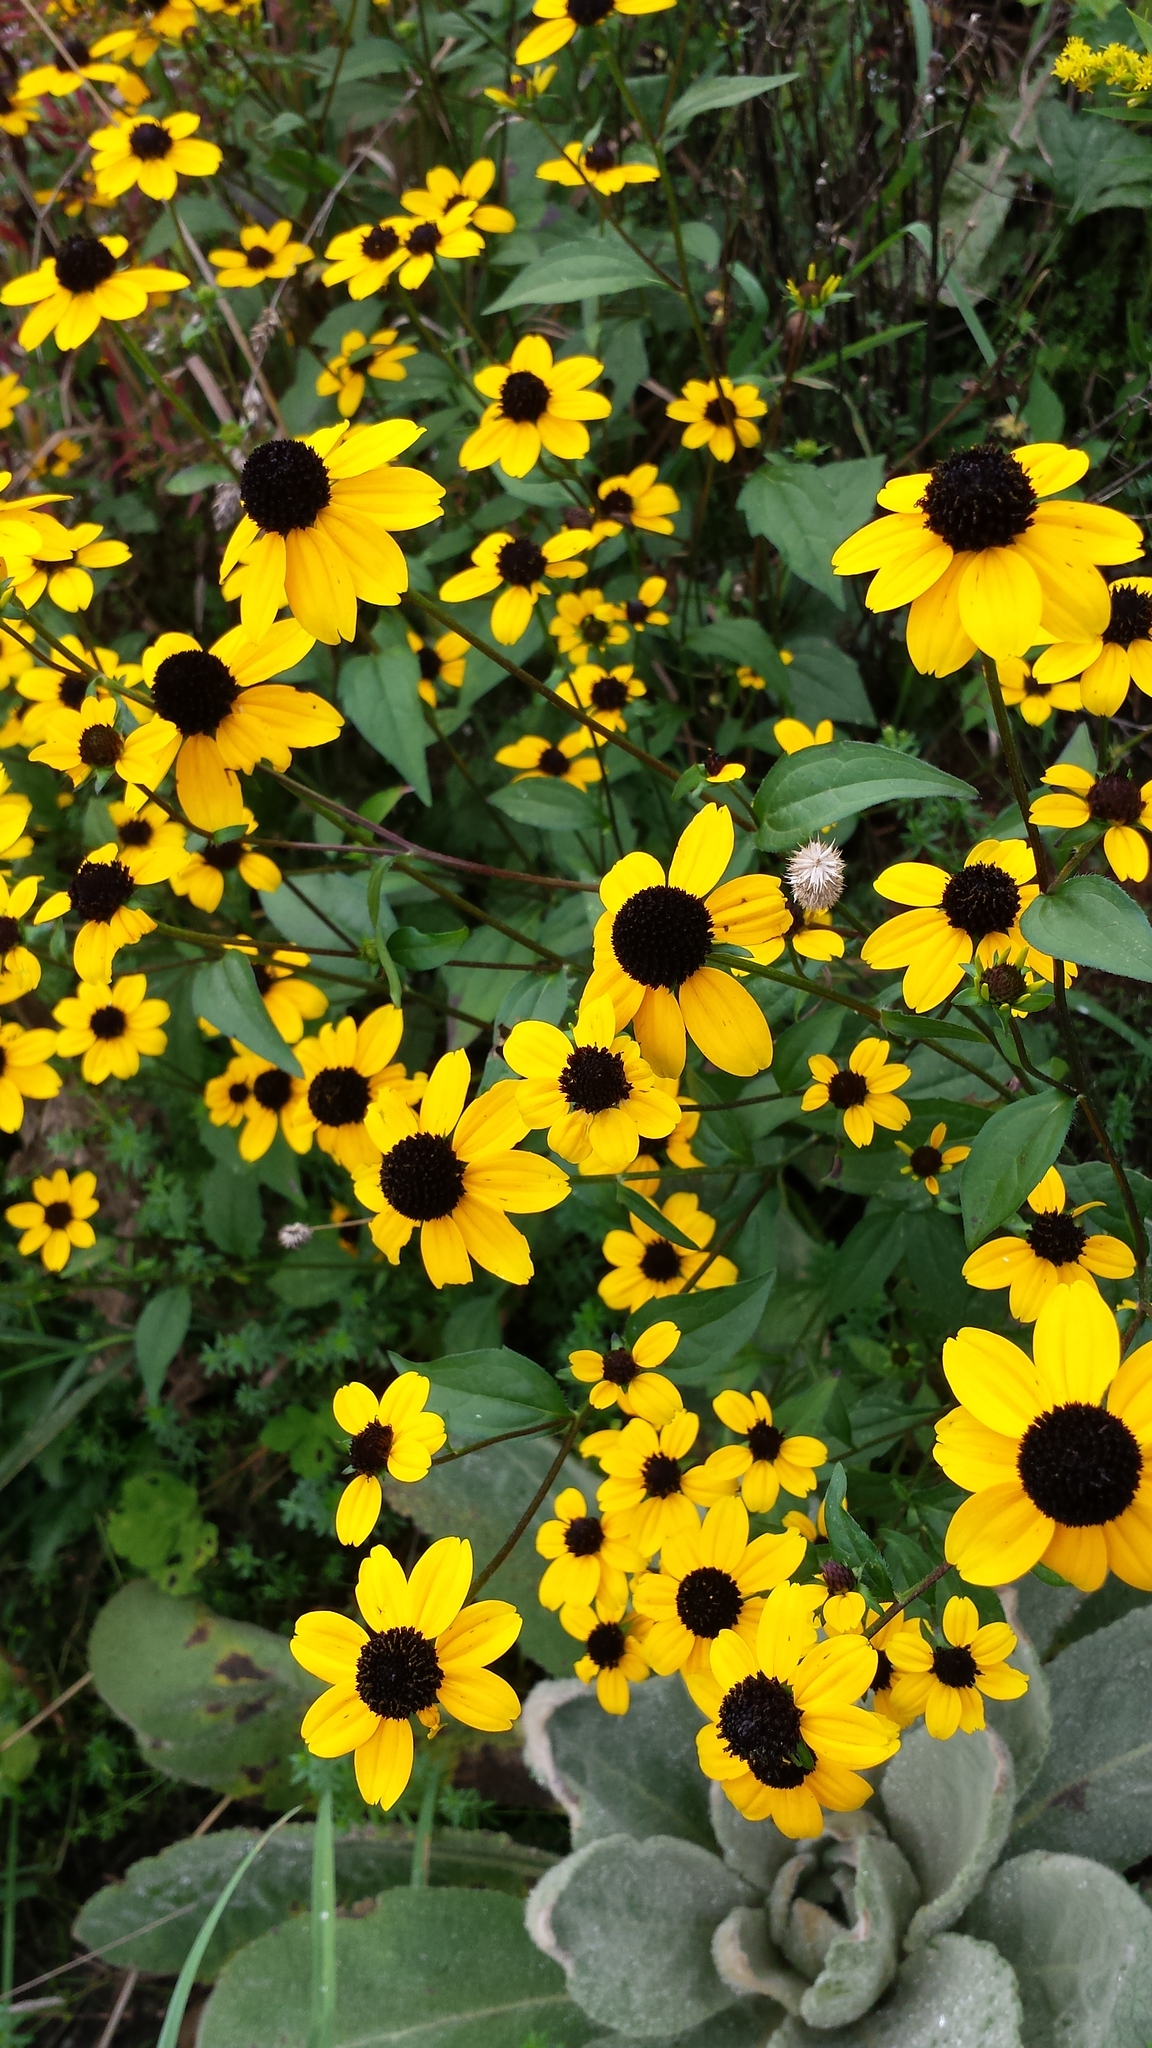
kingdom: Plantae
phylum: Tracheophyta
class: Magnoliopsida
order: Asterales
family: Asteraceae
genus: Rudbeckia
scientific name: Rudbeckia triloba
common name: Thin-leaved coneflower
